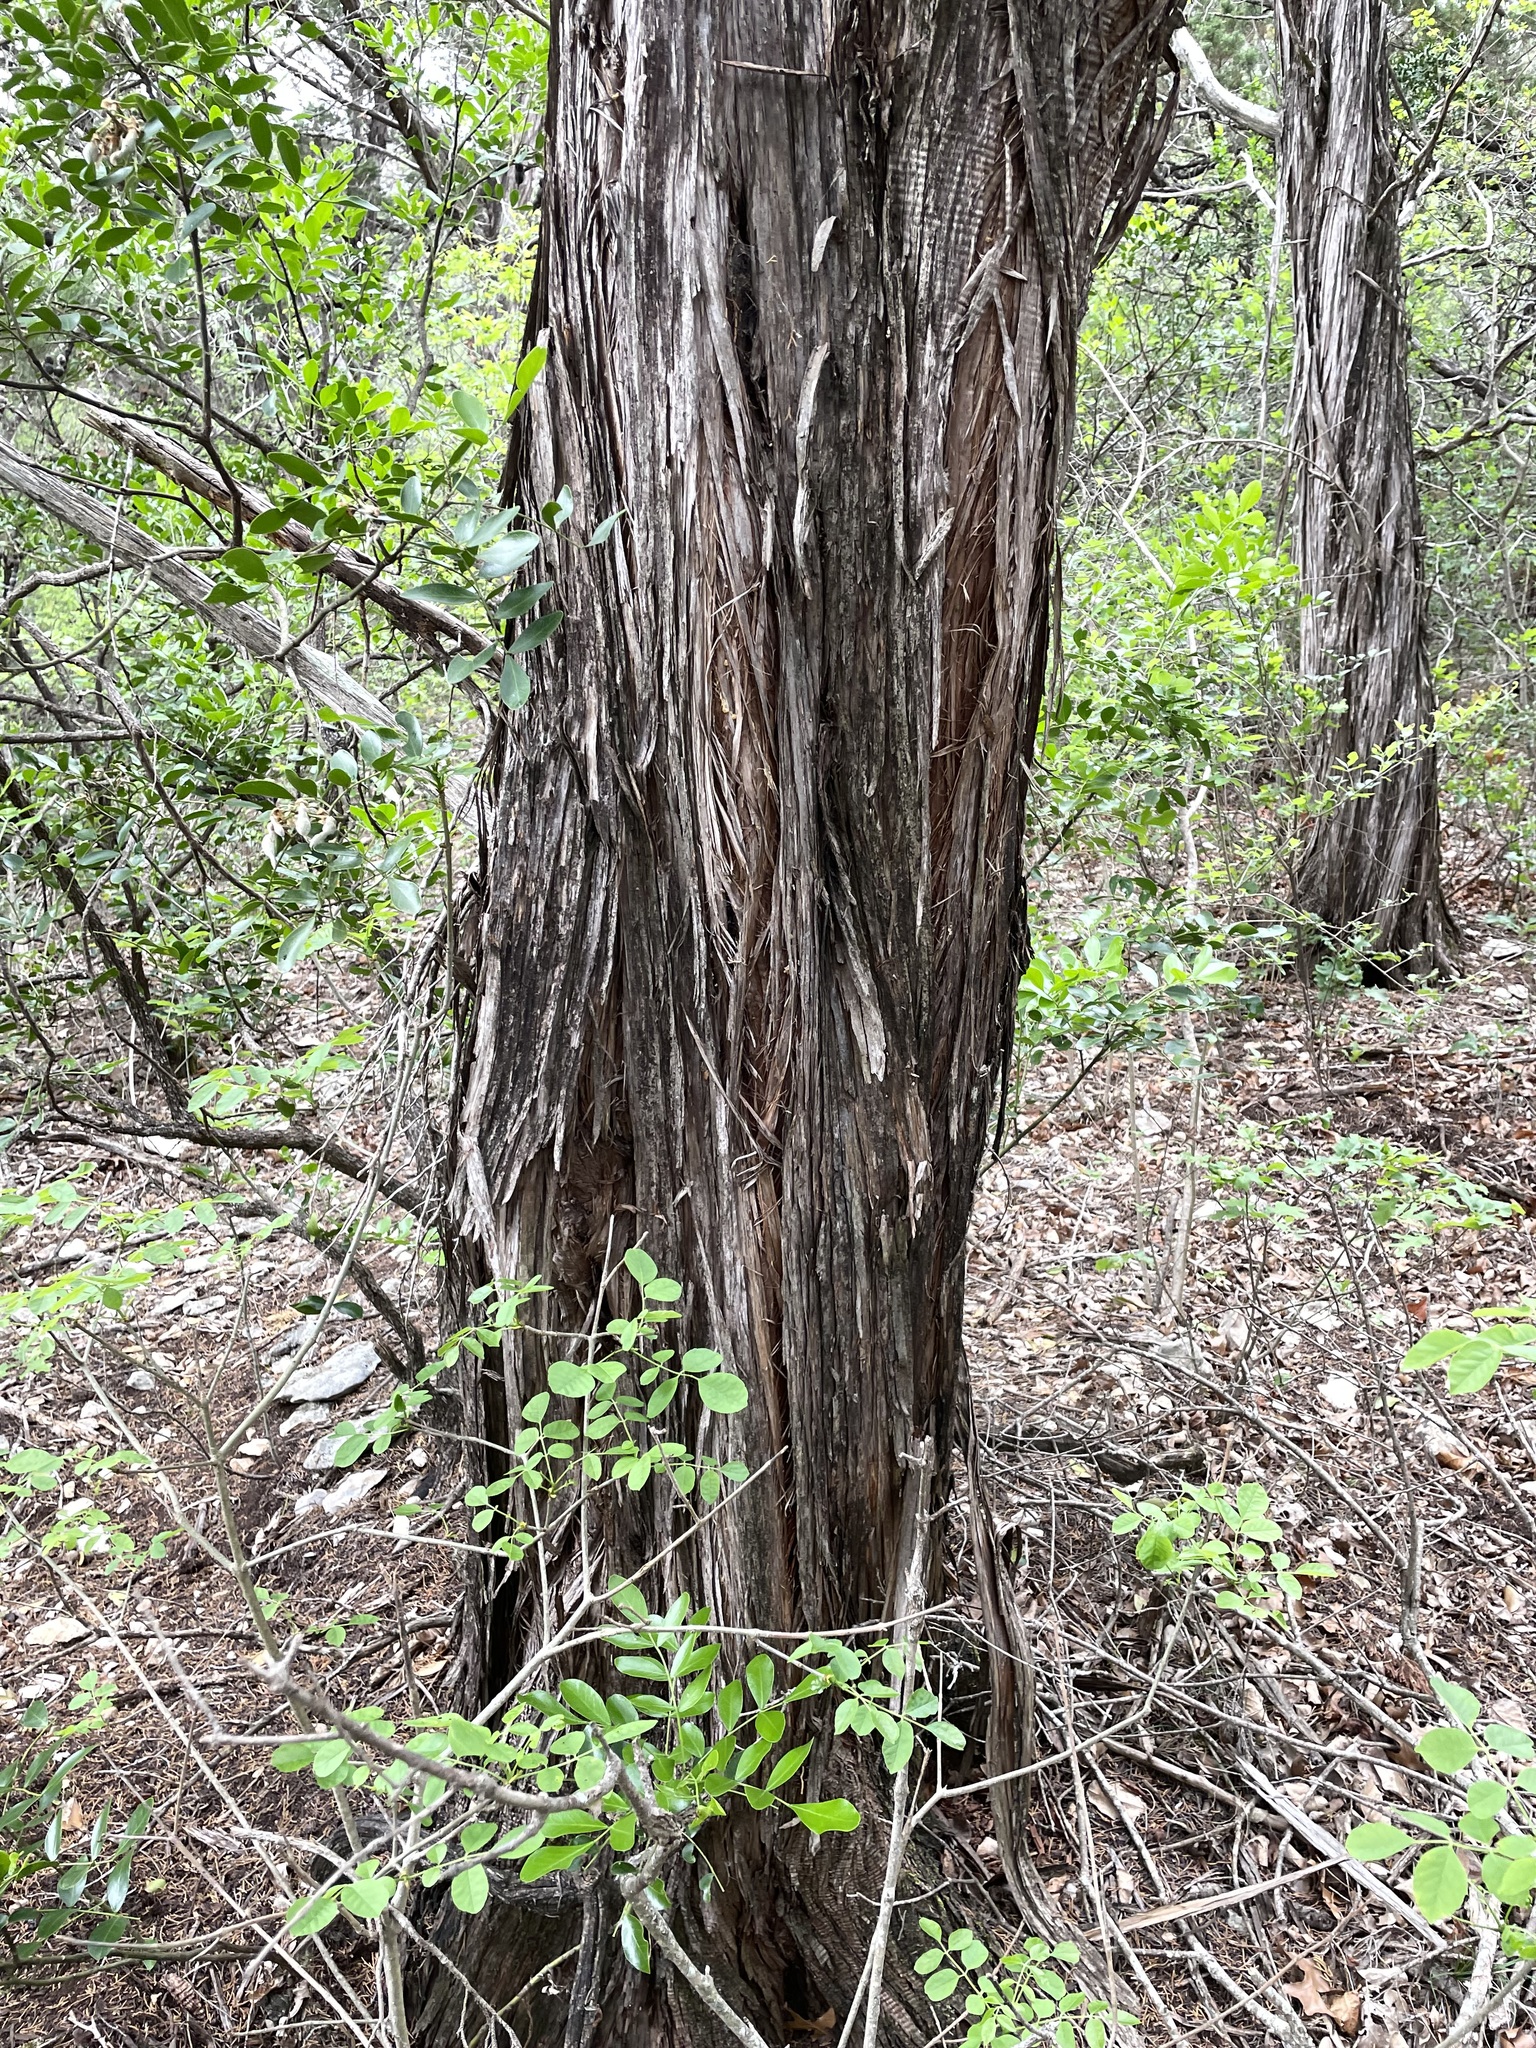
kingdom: Plantae
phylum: Tracheophyta
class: Pinopsida
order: Pinales
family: Cupressaceae
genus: Juniperus
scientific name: Juniperus ashei
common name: Mexican juniper
